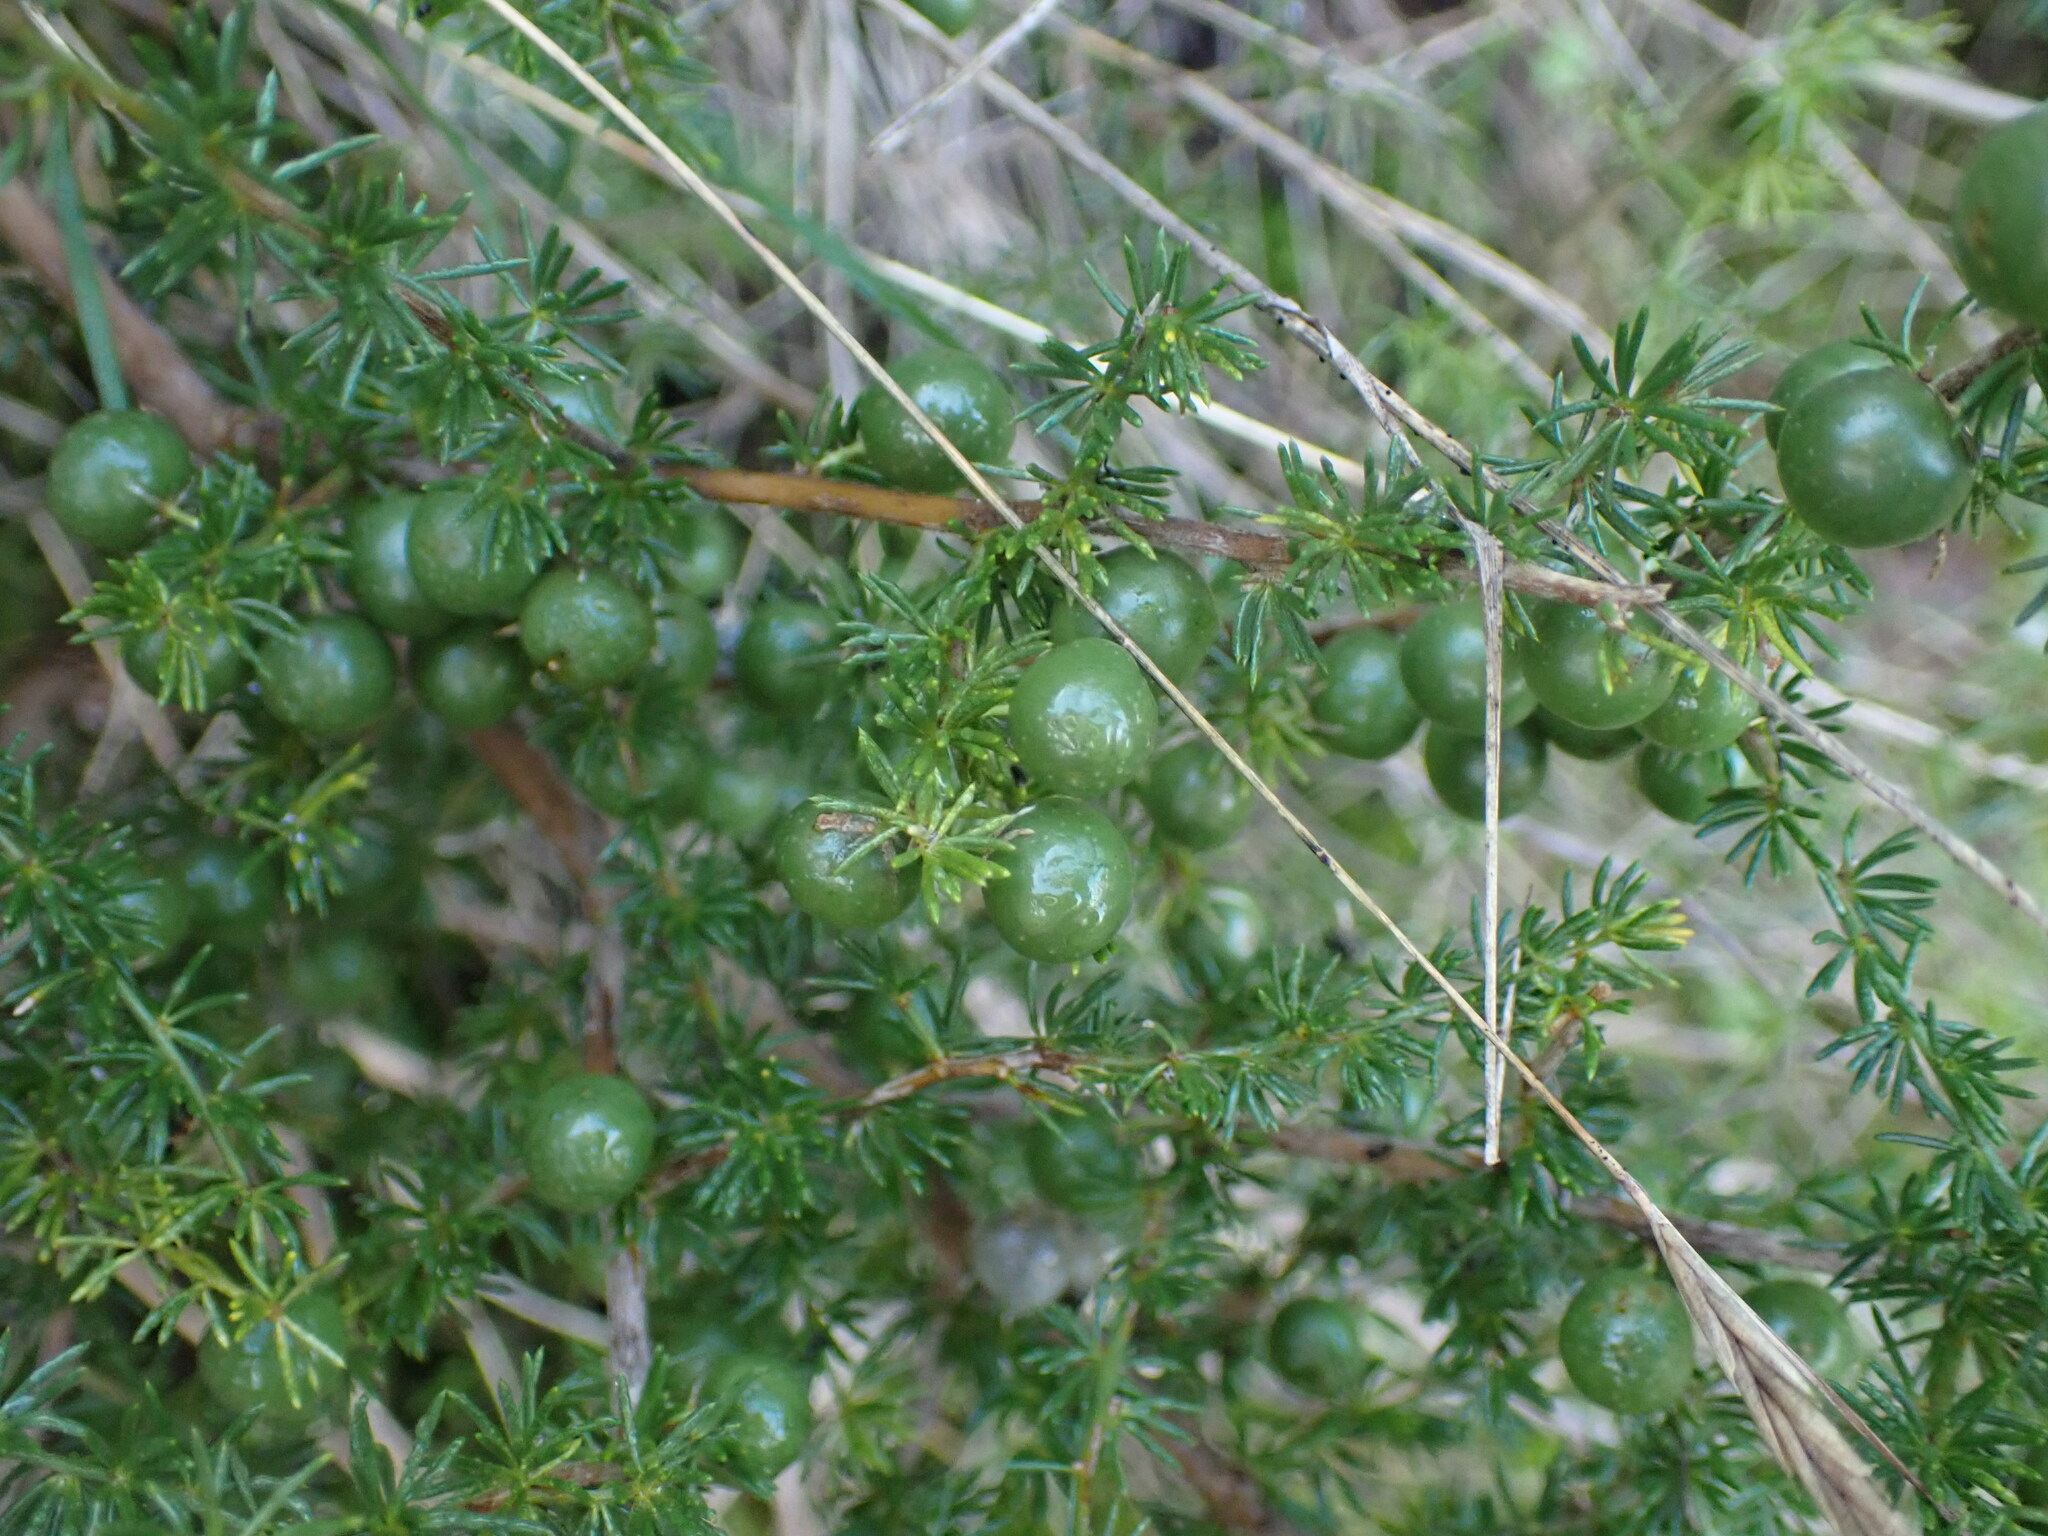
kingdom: Plantae
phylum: Tracheophyta
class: Liliopsida
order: Asparagales
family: Asparagaceae
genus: Asparagus
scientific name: Asparagus acutifolius
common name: Wild asparagus
